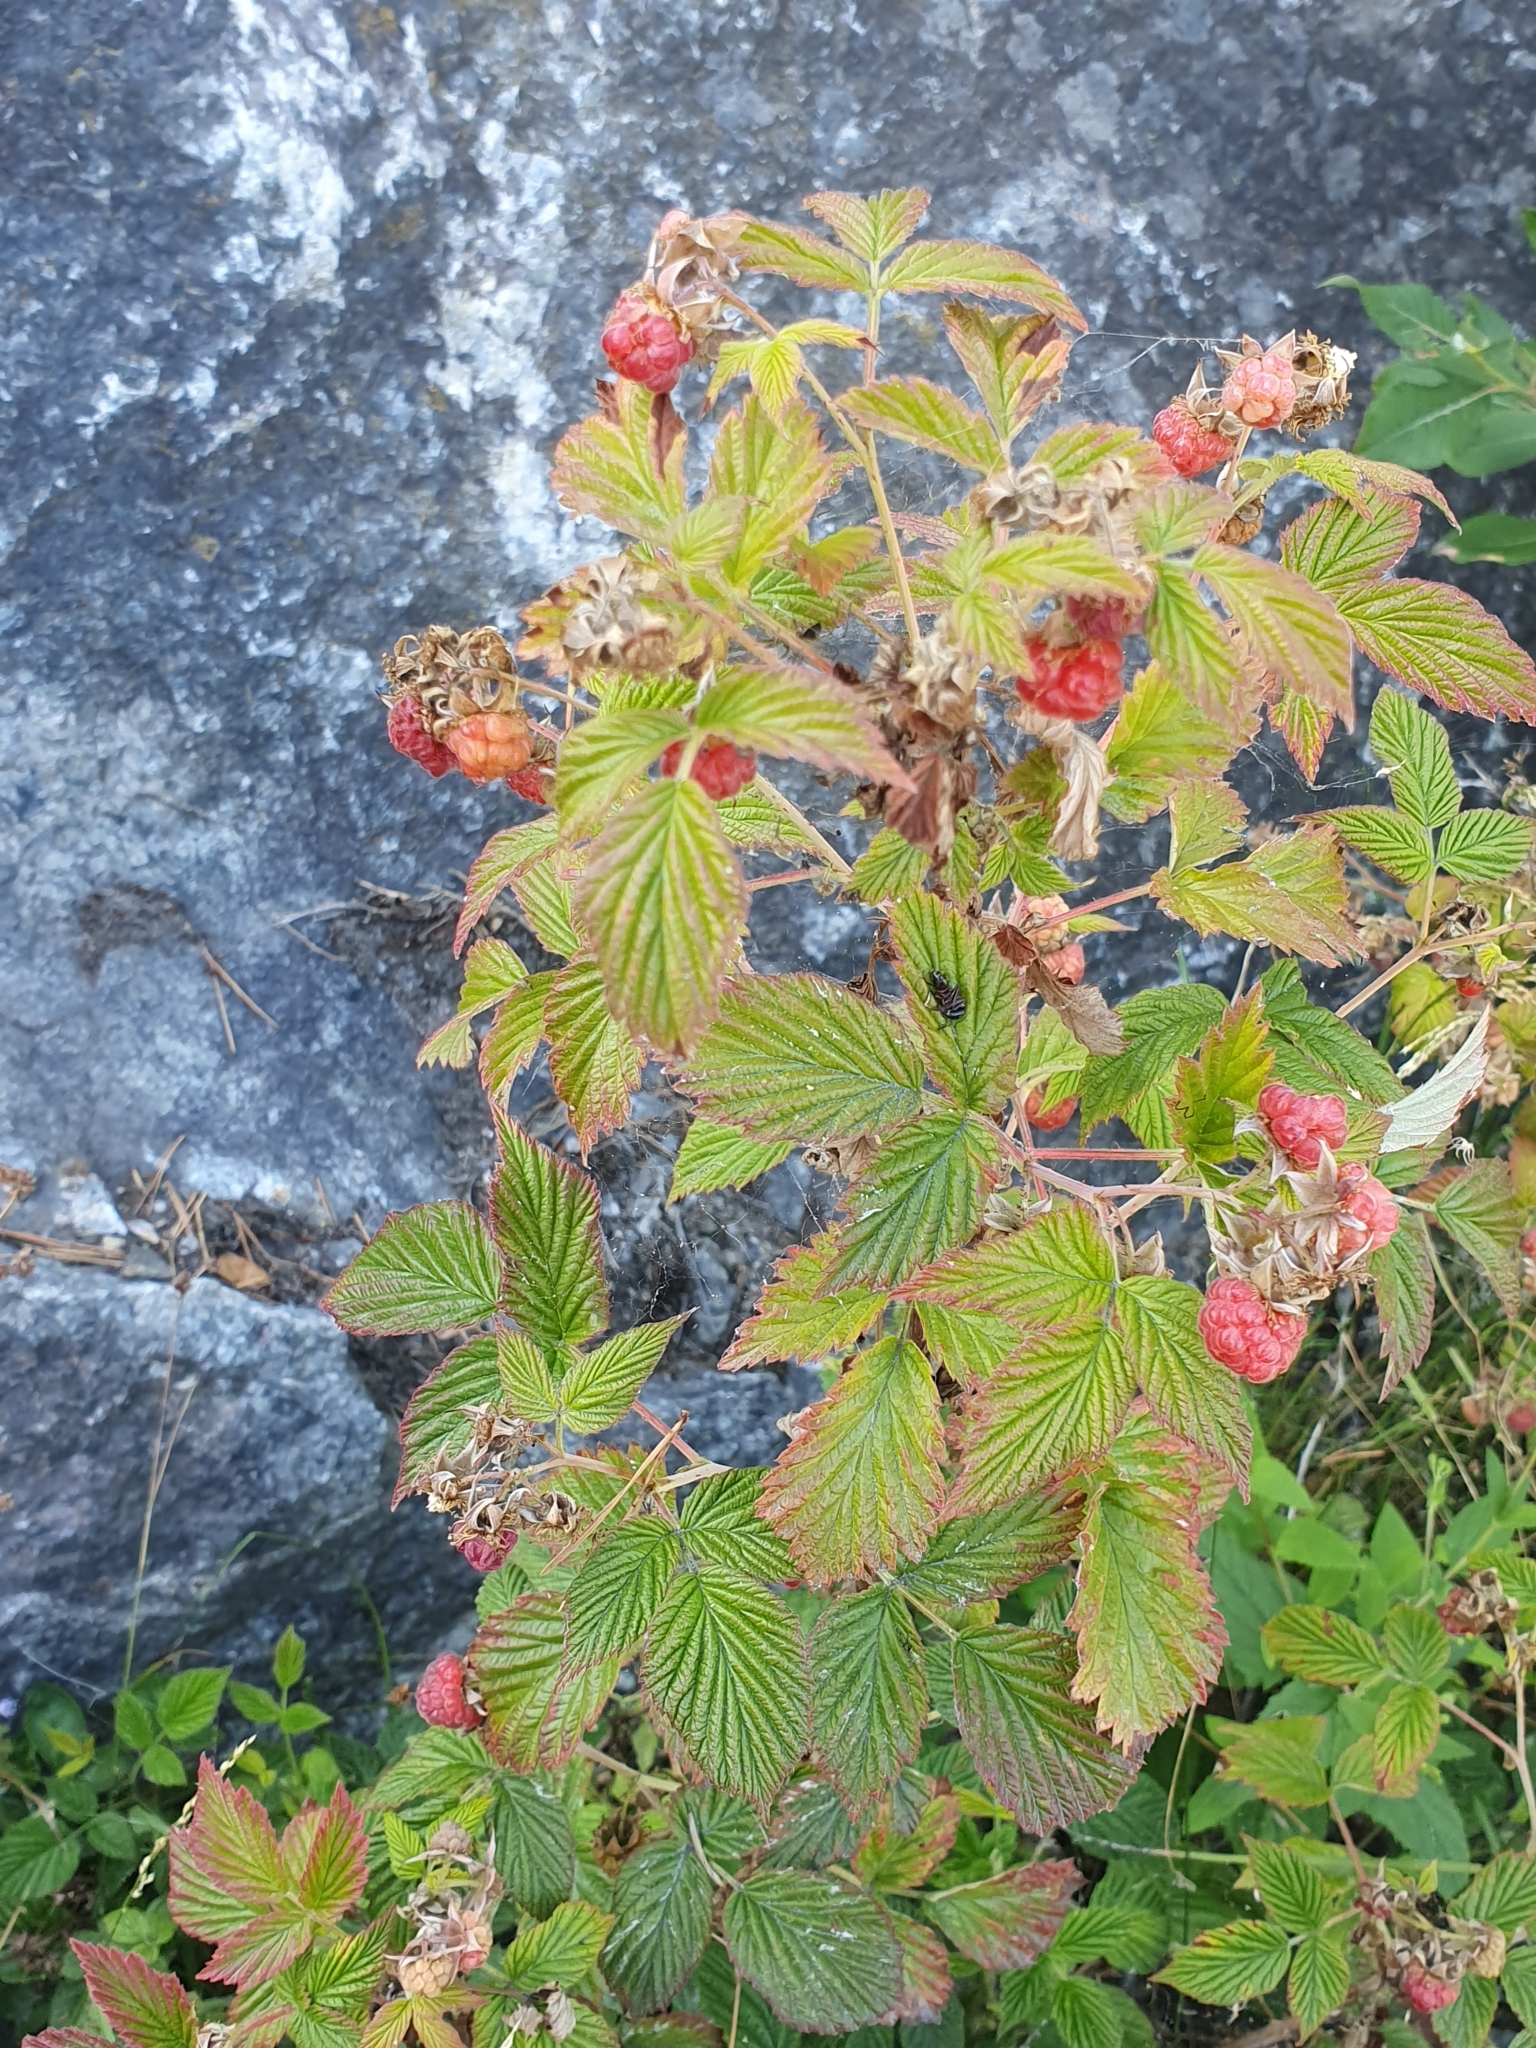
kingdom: Plantae
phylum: Tracheophyta
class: Magnoliopsida
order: Rosales
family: Rosaceae
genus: Rubus
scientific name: Rubus idaeus
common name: Raspberry
